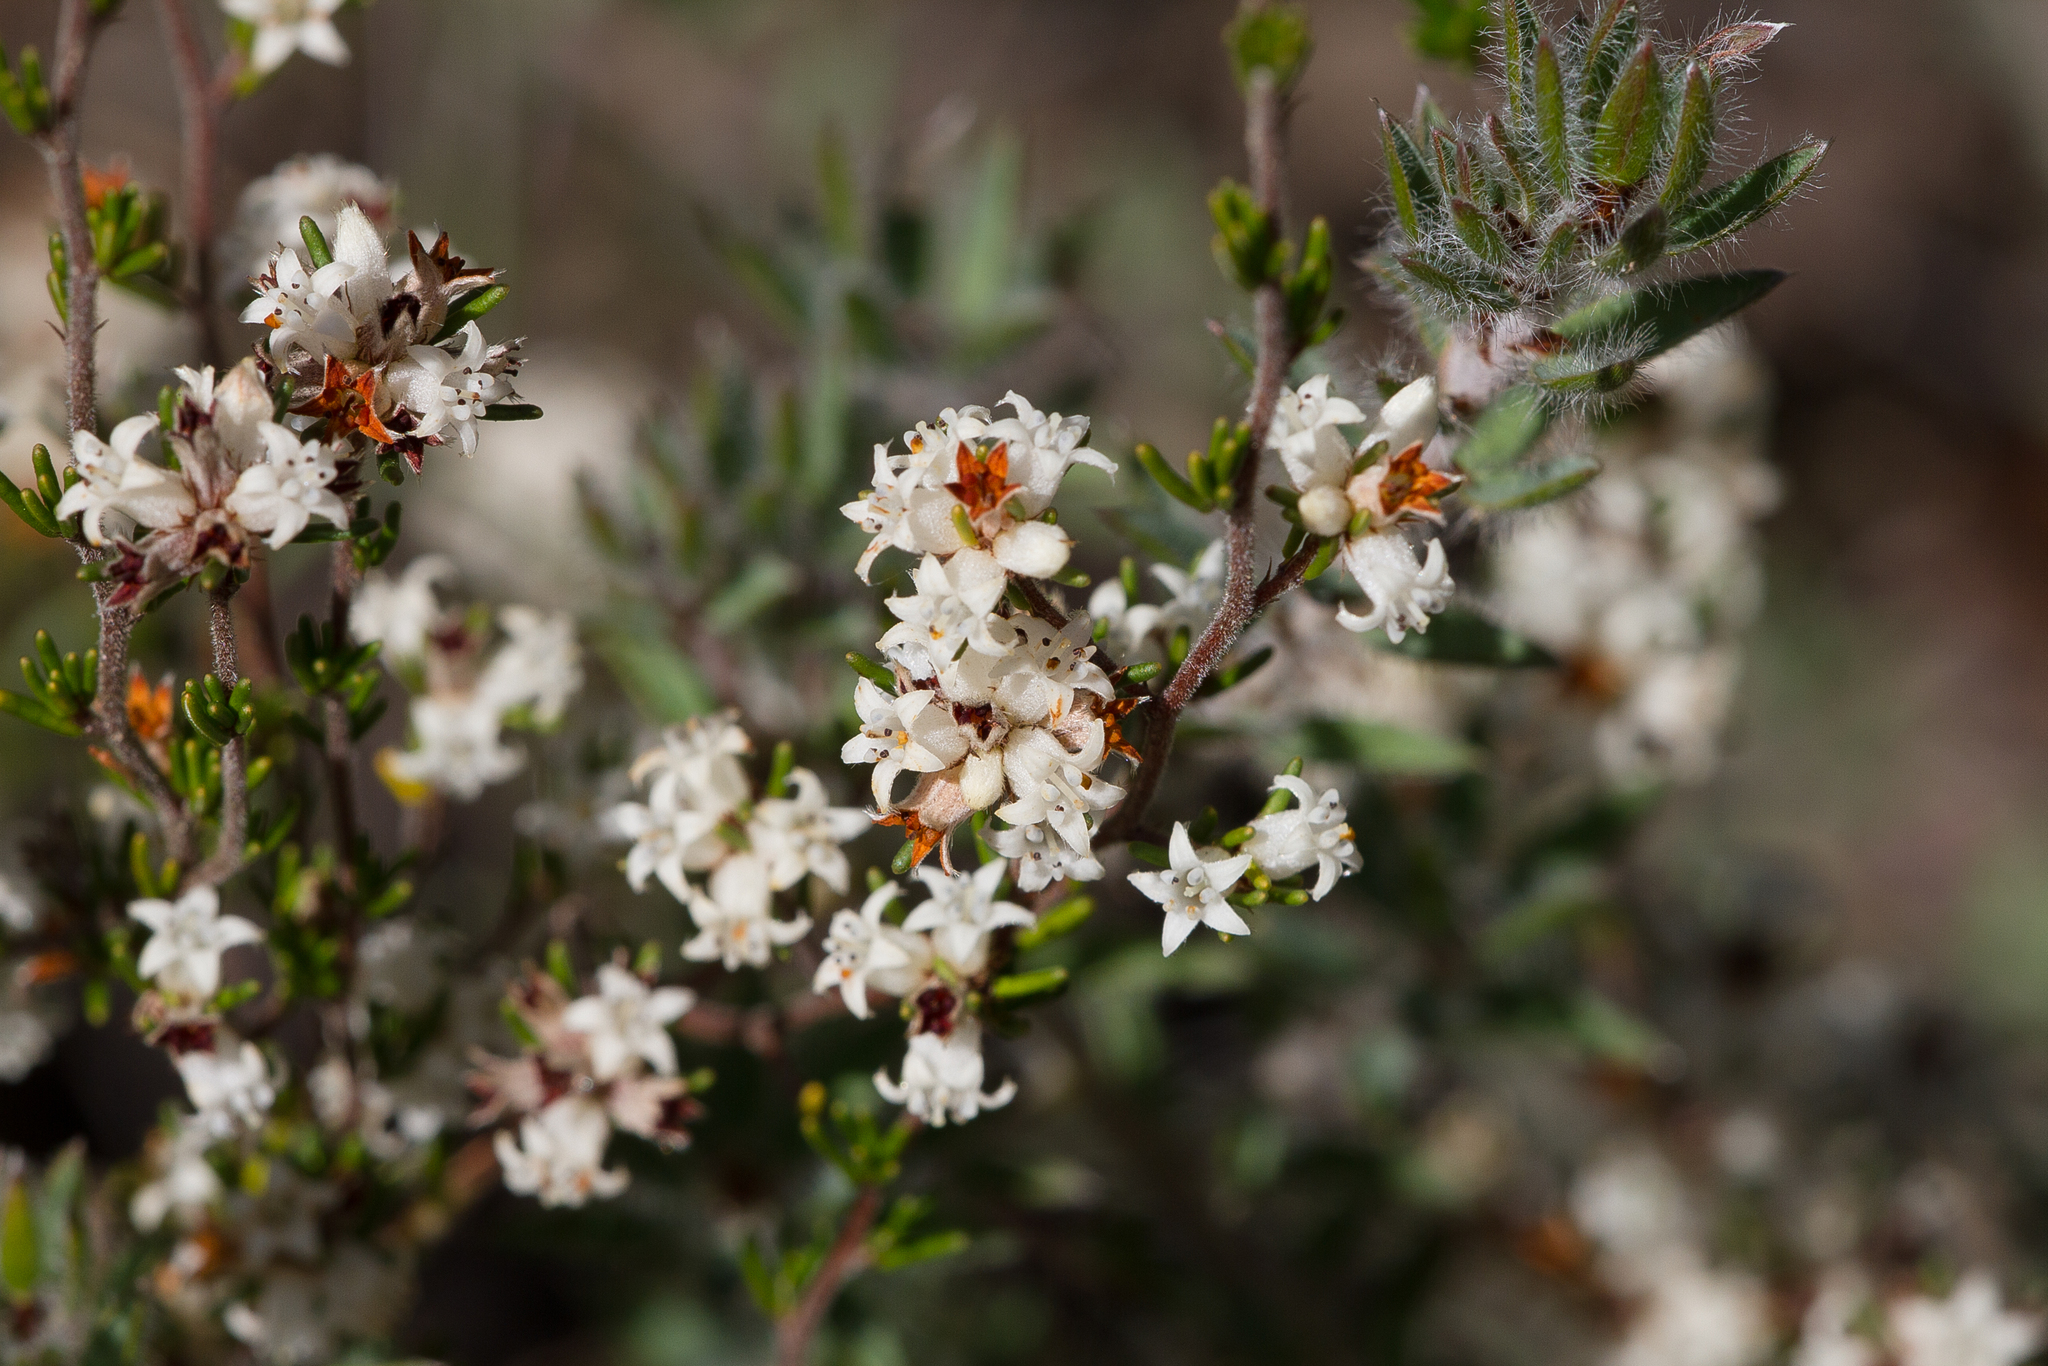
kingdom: Plantae
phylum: Tracheophyta
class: Magnoliopsida
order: Rosales
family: Rhamnaceae
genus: Cryptandra
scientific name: Cryptandra hispidula
